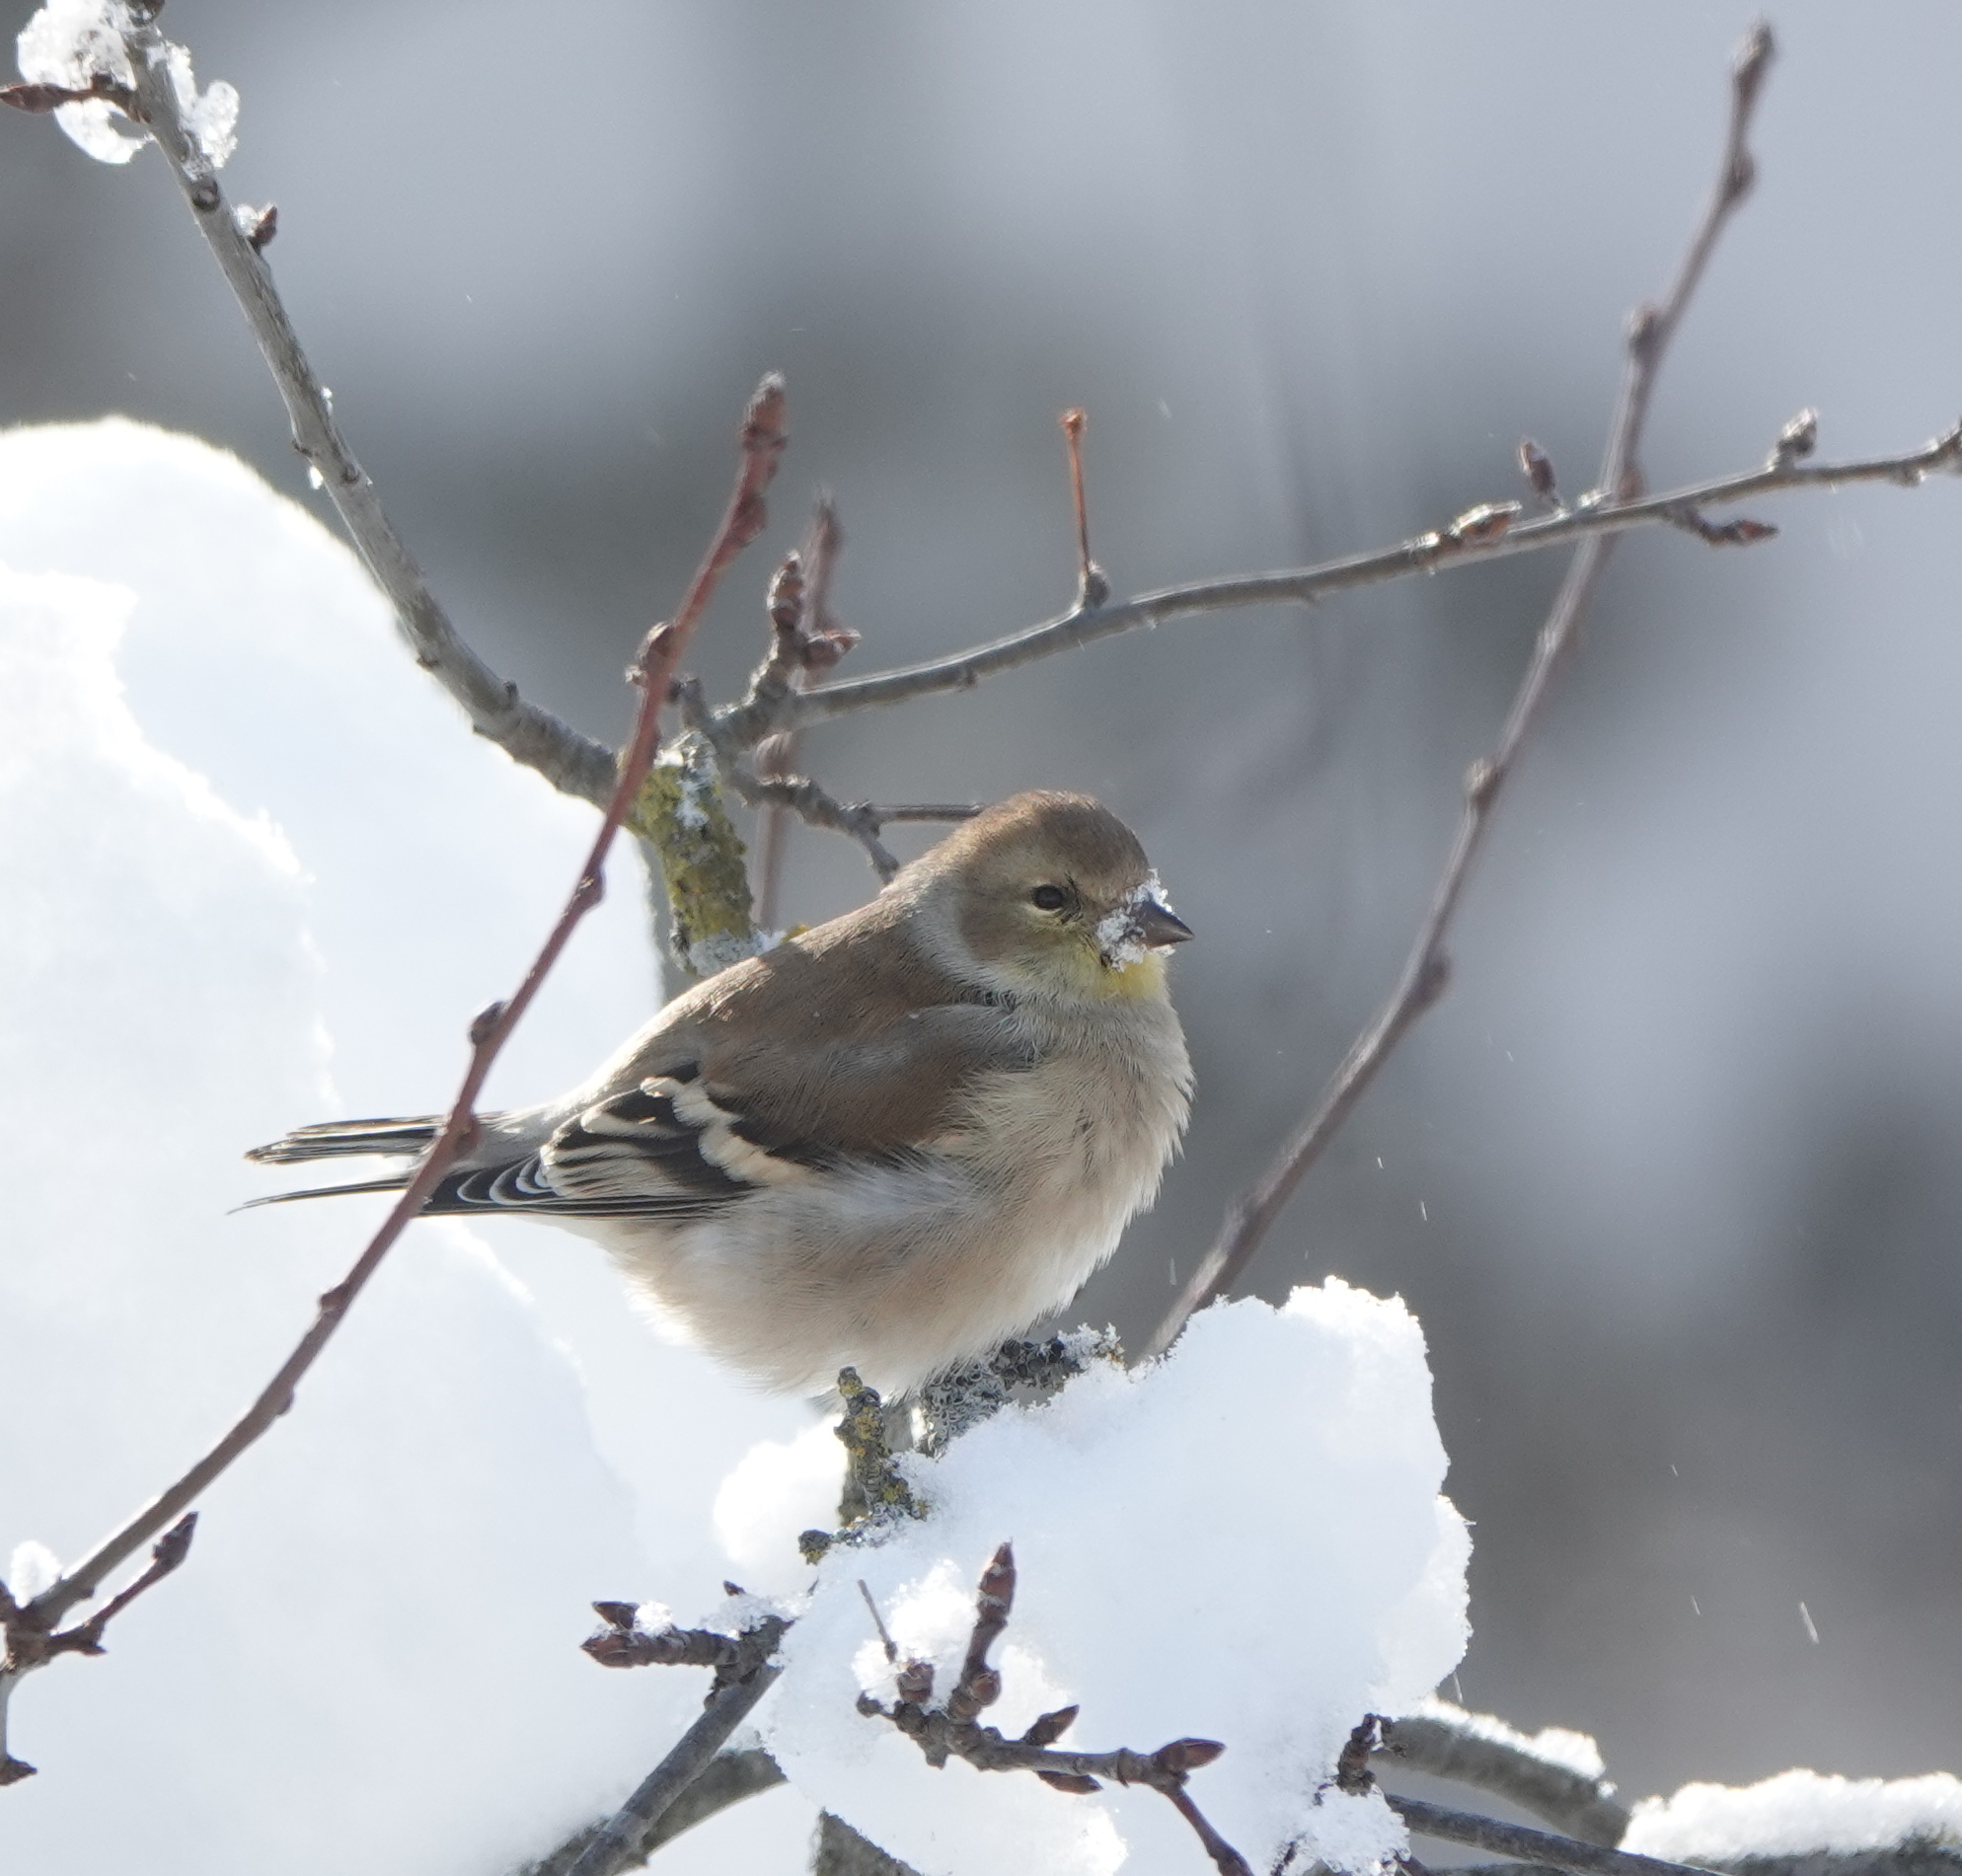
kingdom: Animalia
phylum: Chordata
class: Aves
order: Passeriformes
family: Fringillidae
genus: Spinus
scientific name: Spinus tristis
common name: American goldfinch
